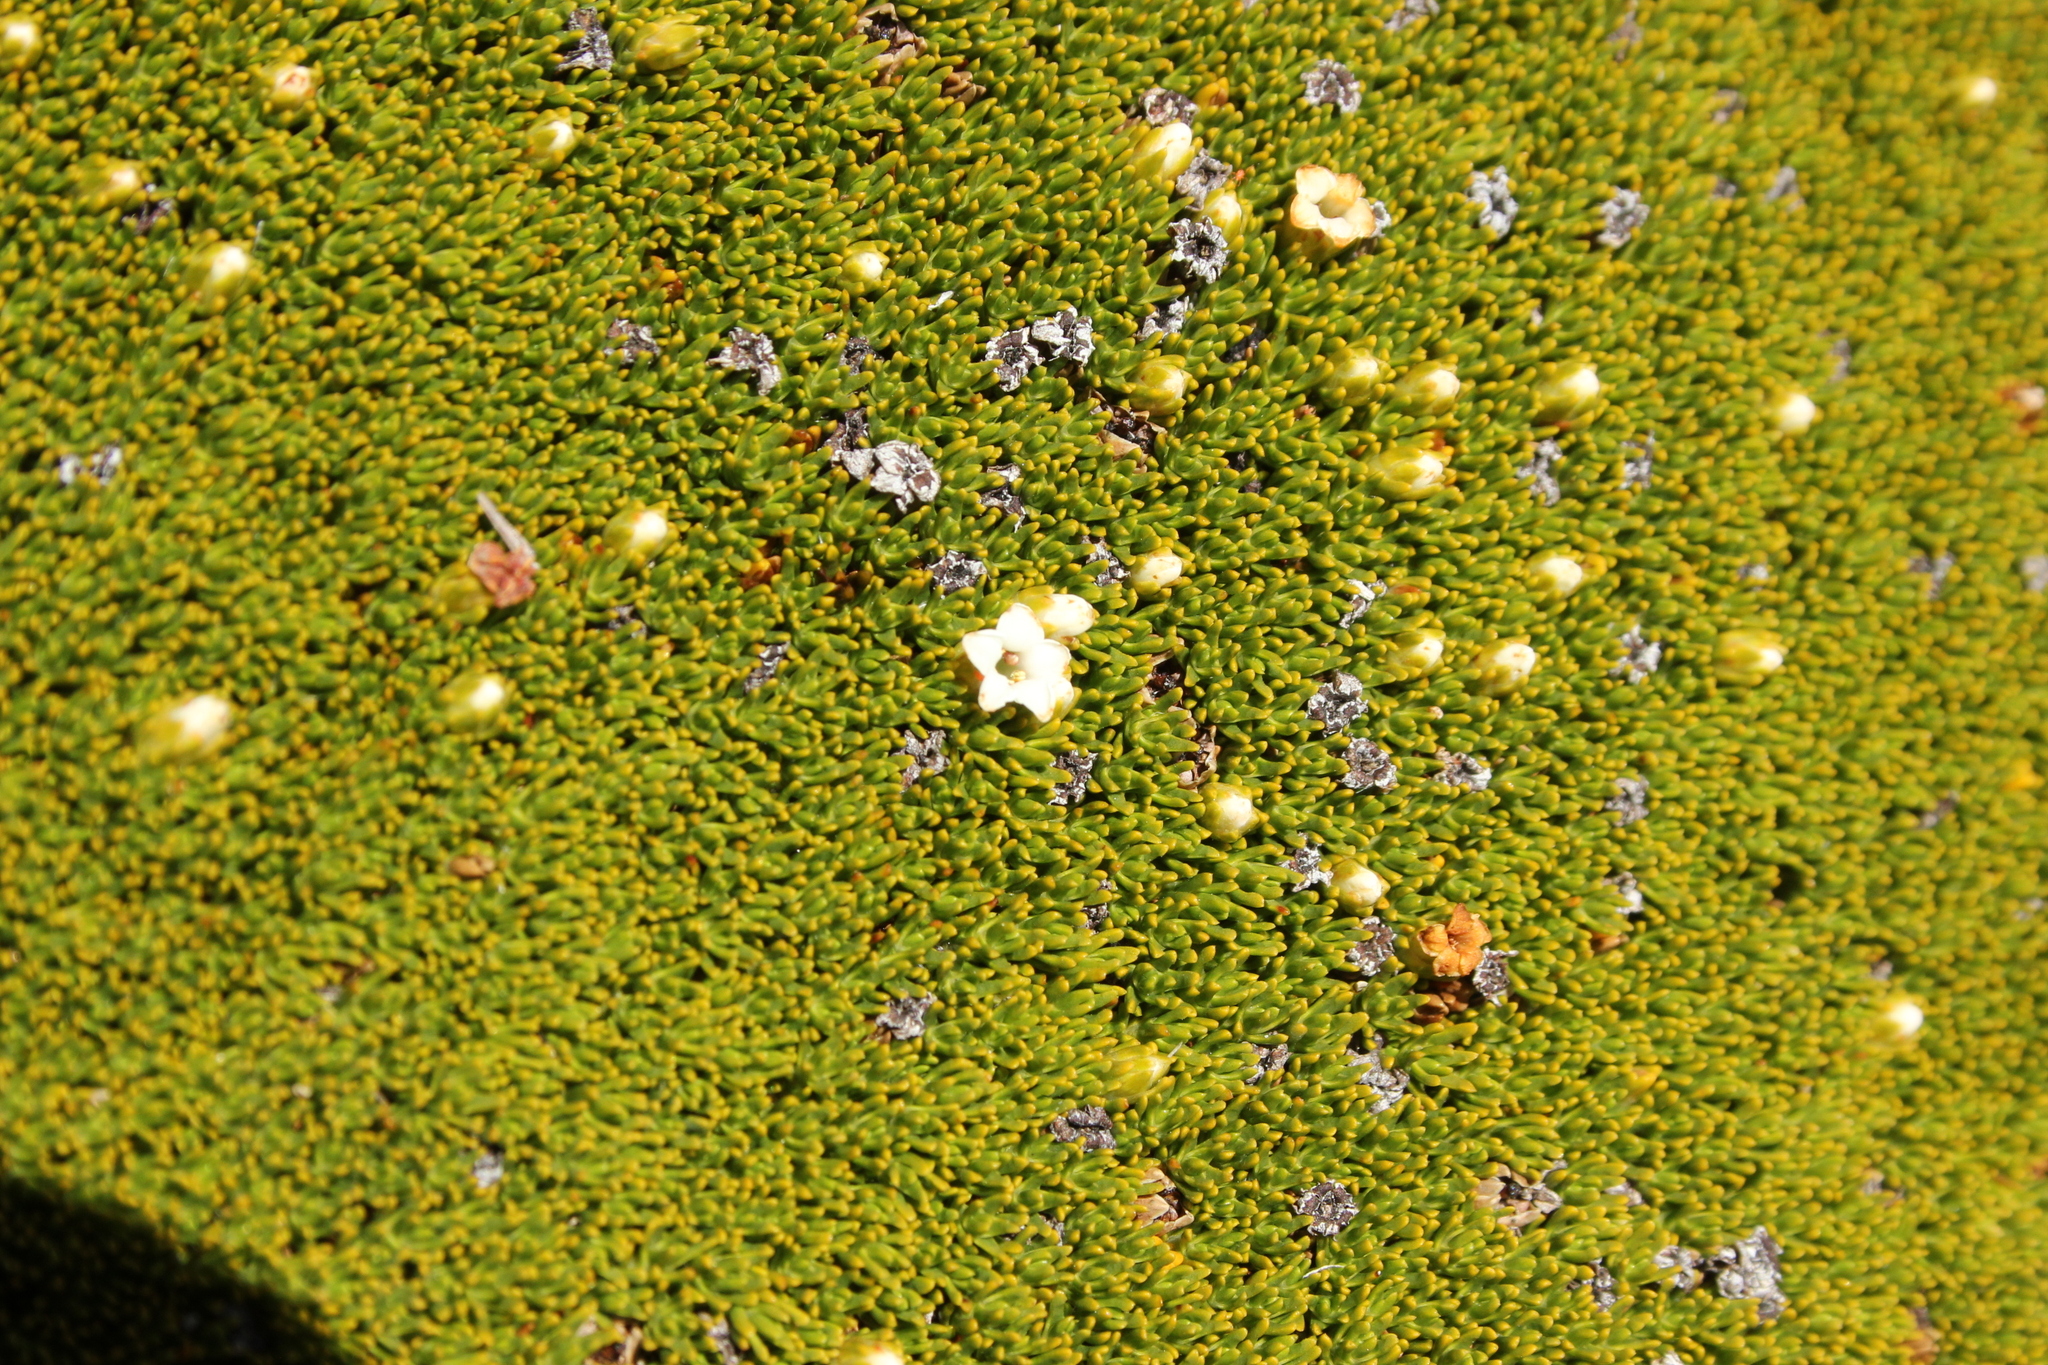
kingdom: Plantae
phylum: Tracheophyta
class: Magnoliopsida
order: Ericales
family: Ericaceae
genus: Dracophyllum
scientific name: Dracophyllum muscoides
